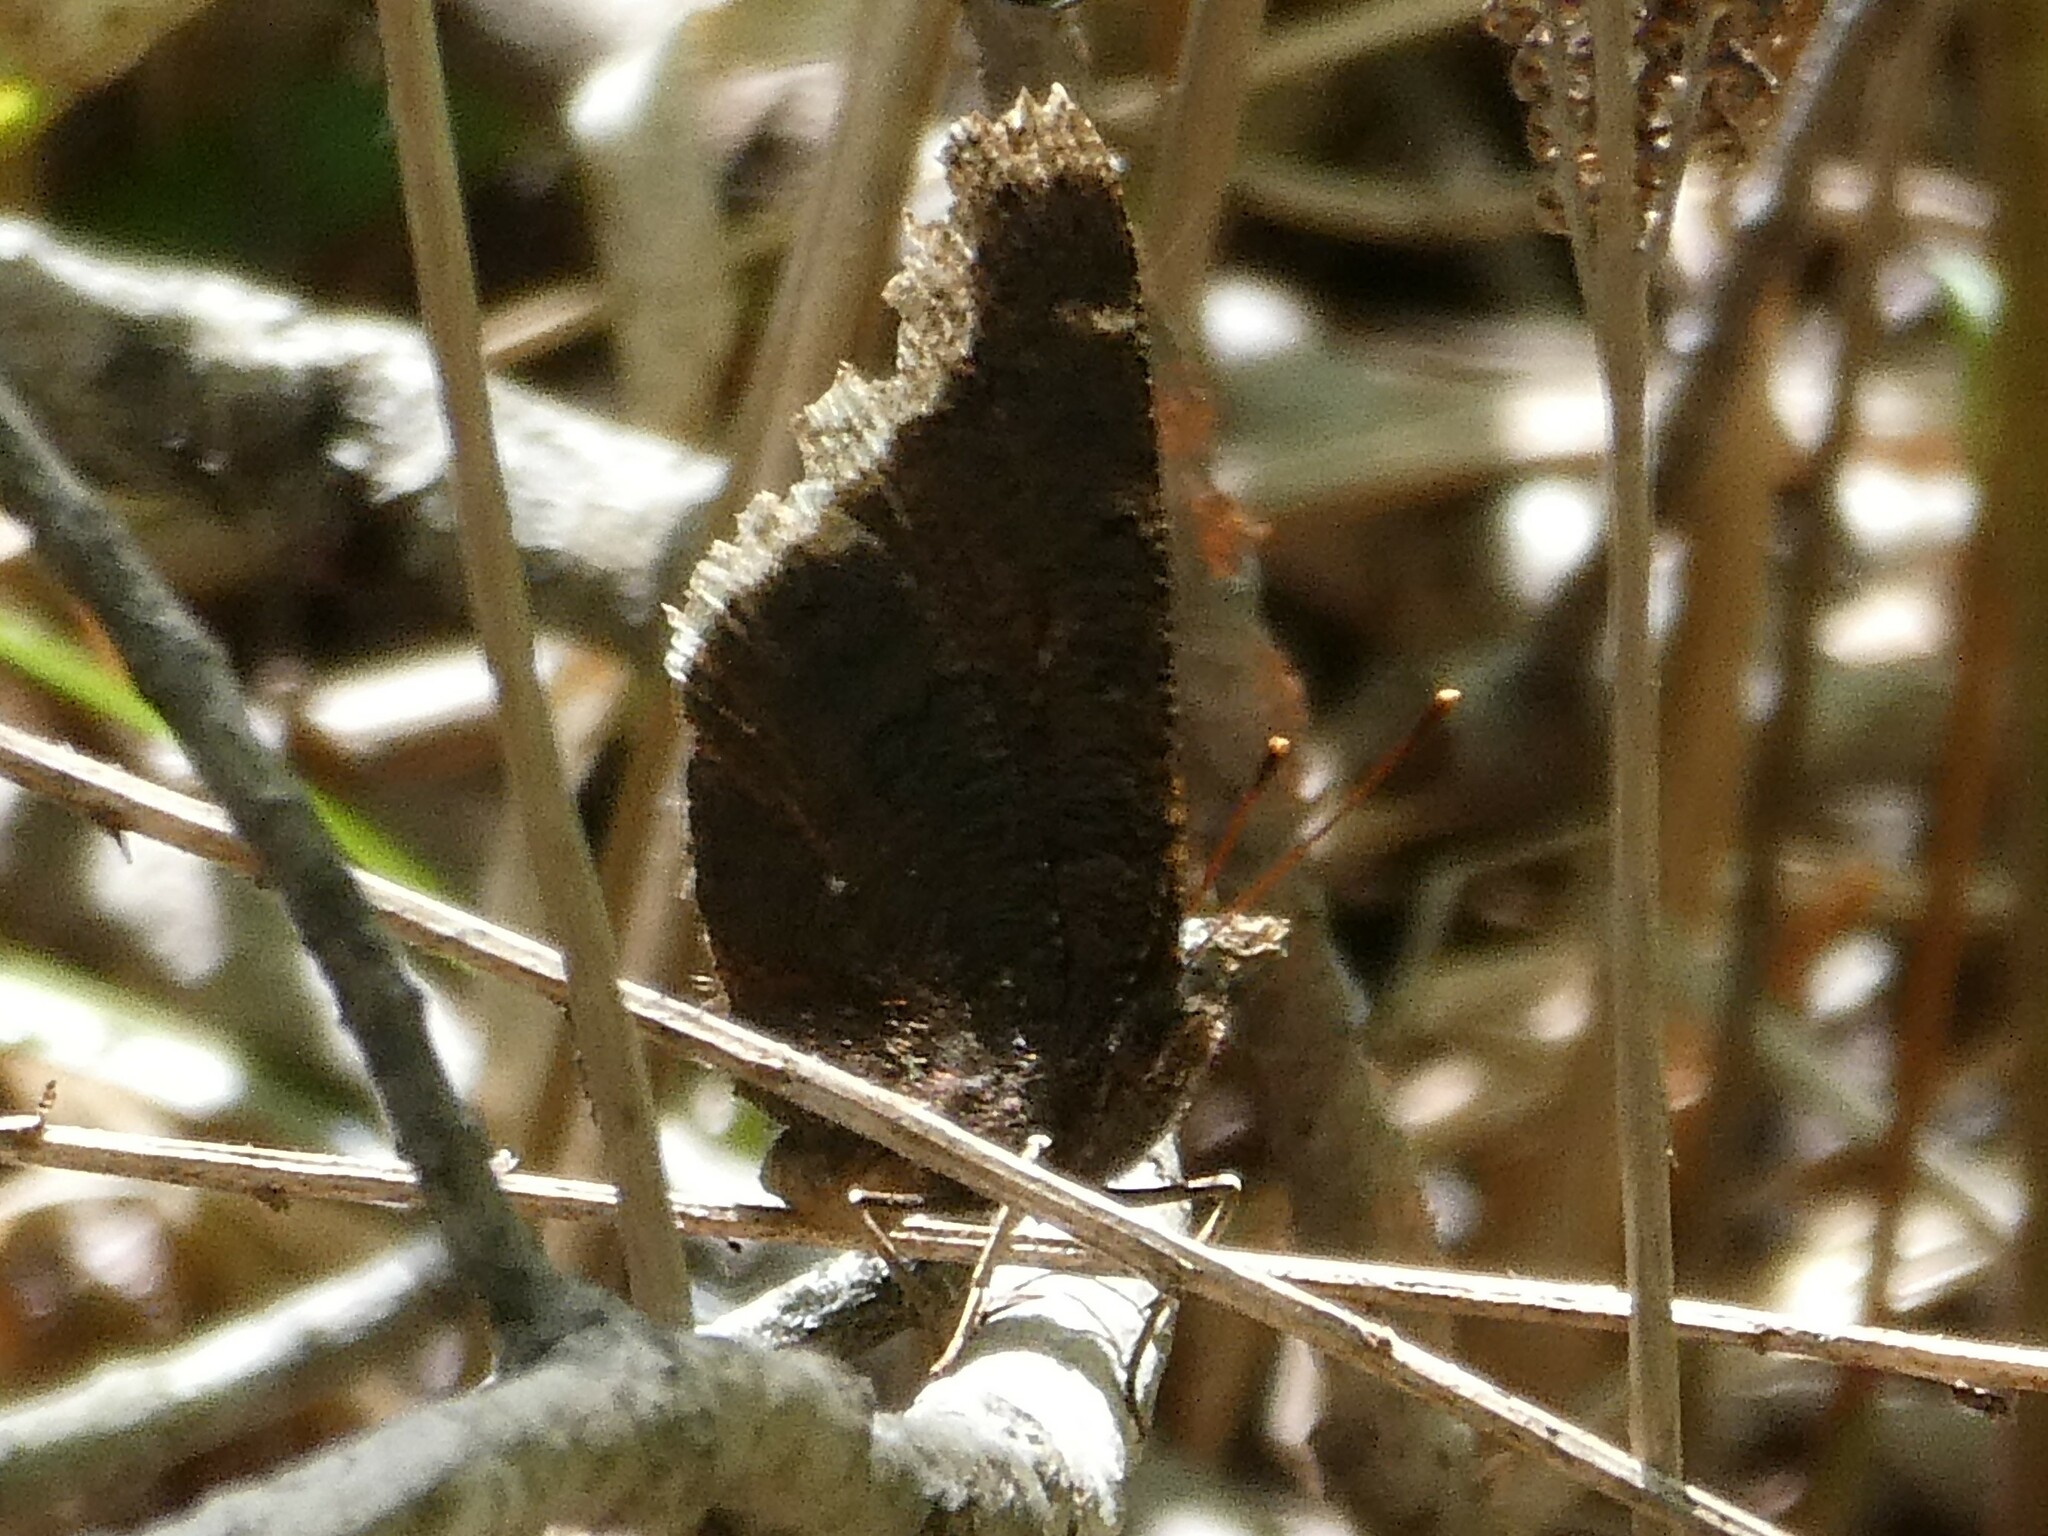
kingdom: Animalia
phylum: Arthropoda
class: Insecta
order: Lepidoptera
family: Nymphalidae
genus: Nymphalis
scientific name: Nymphalis antiopa
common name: Camberwell beauty
